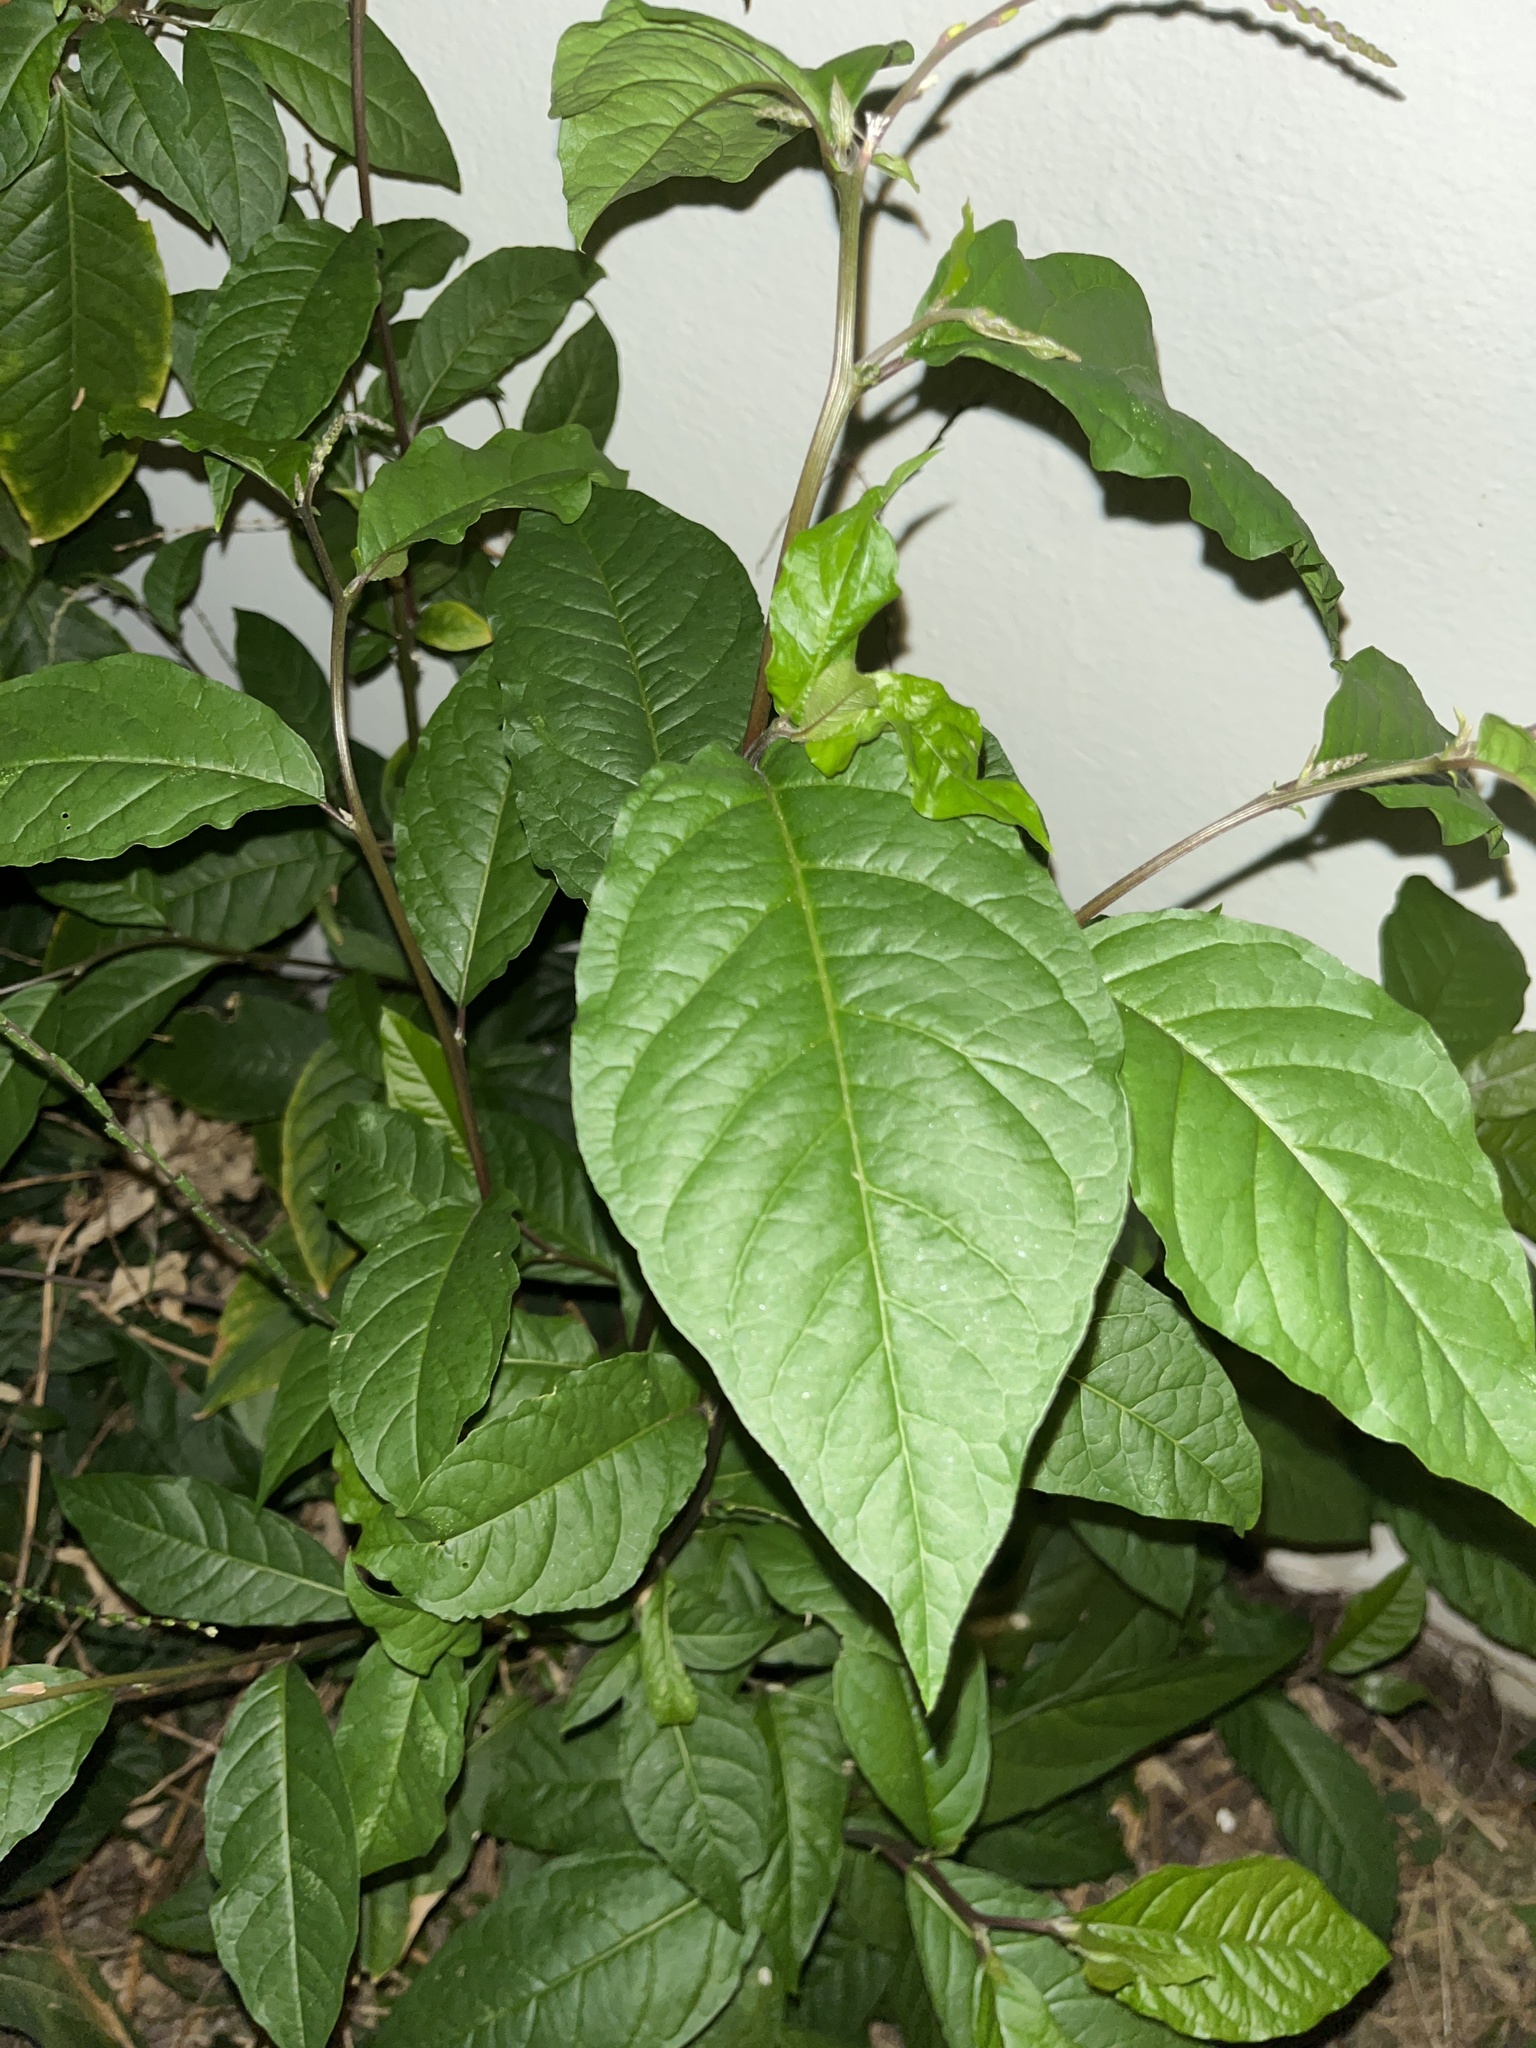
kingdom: Plantae
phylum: Tracheophyta
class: Magnoliopsida
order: Caryophyllales
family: Phytolaccaceae
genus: Petiveria
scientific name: Petiveria alliacea
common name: Garlicweed
